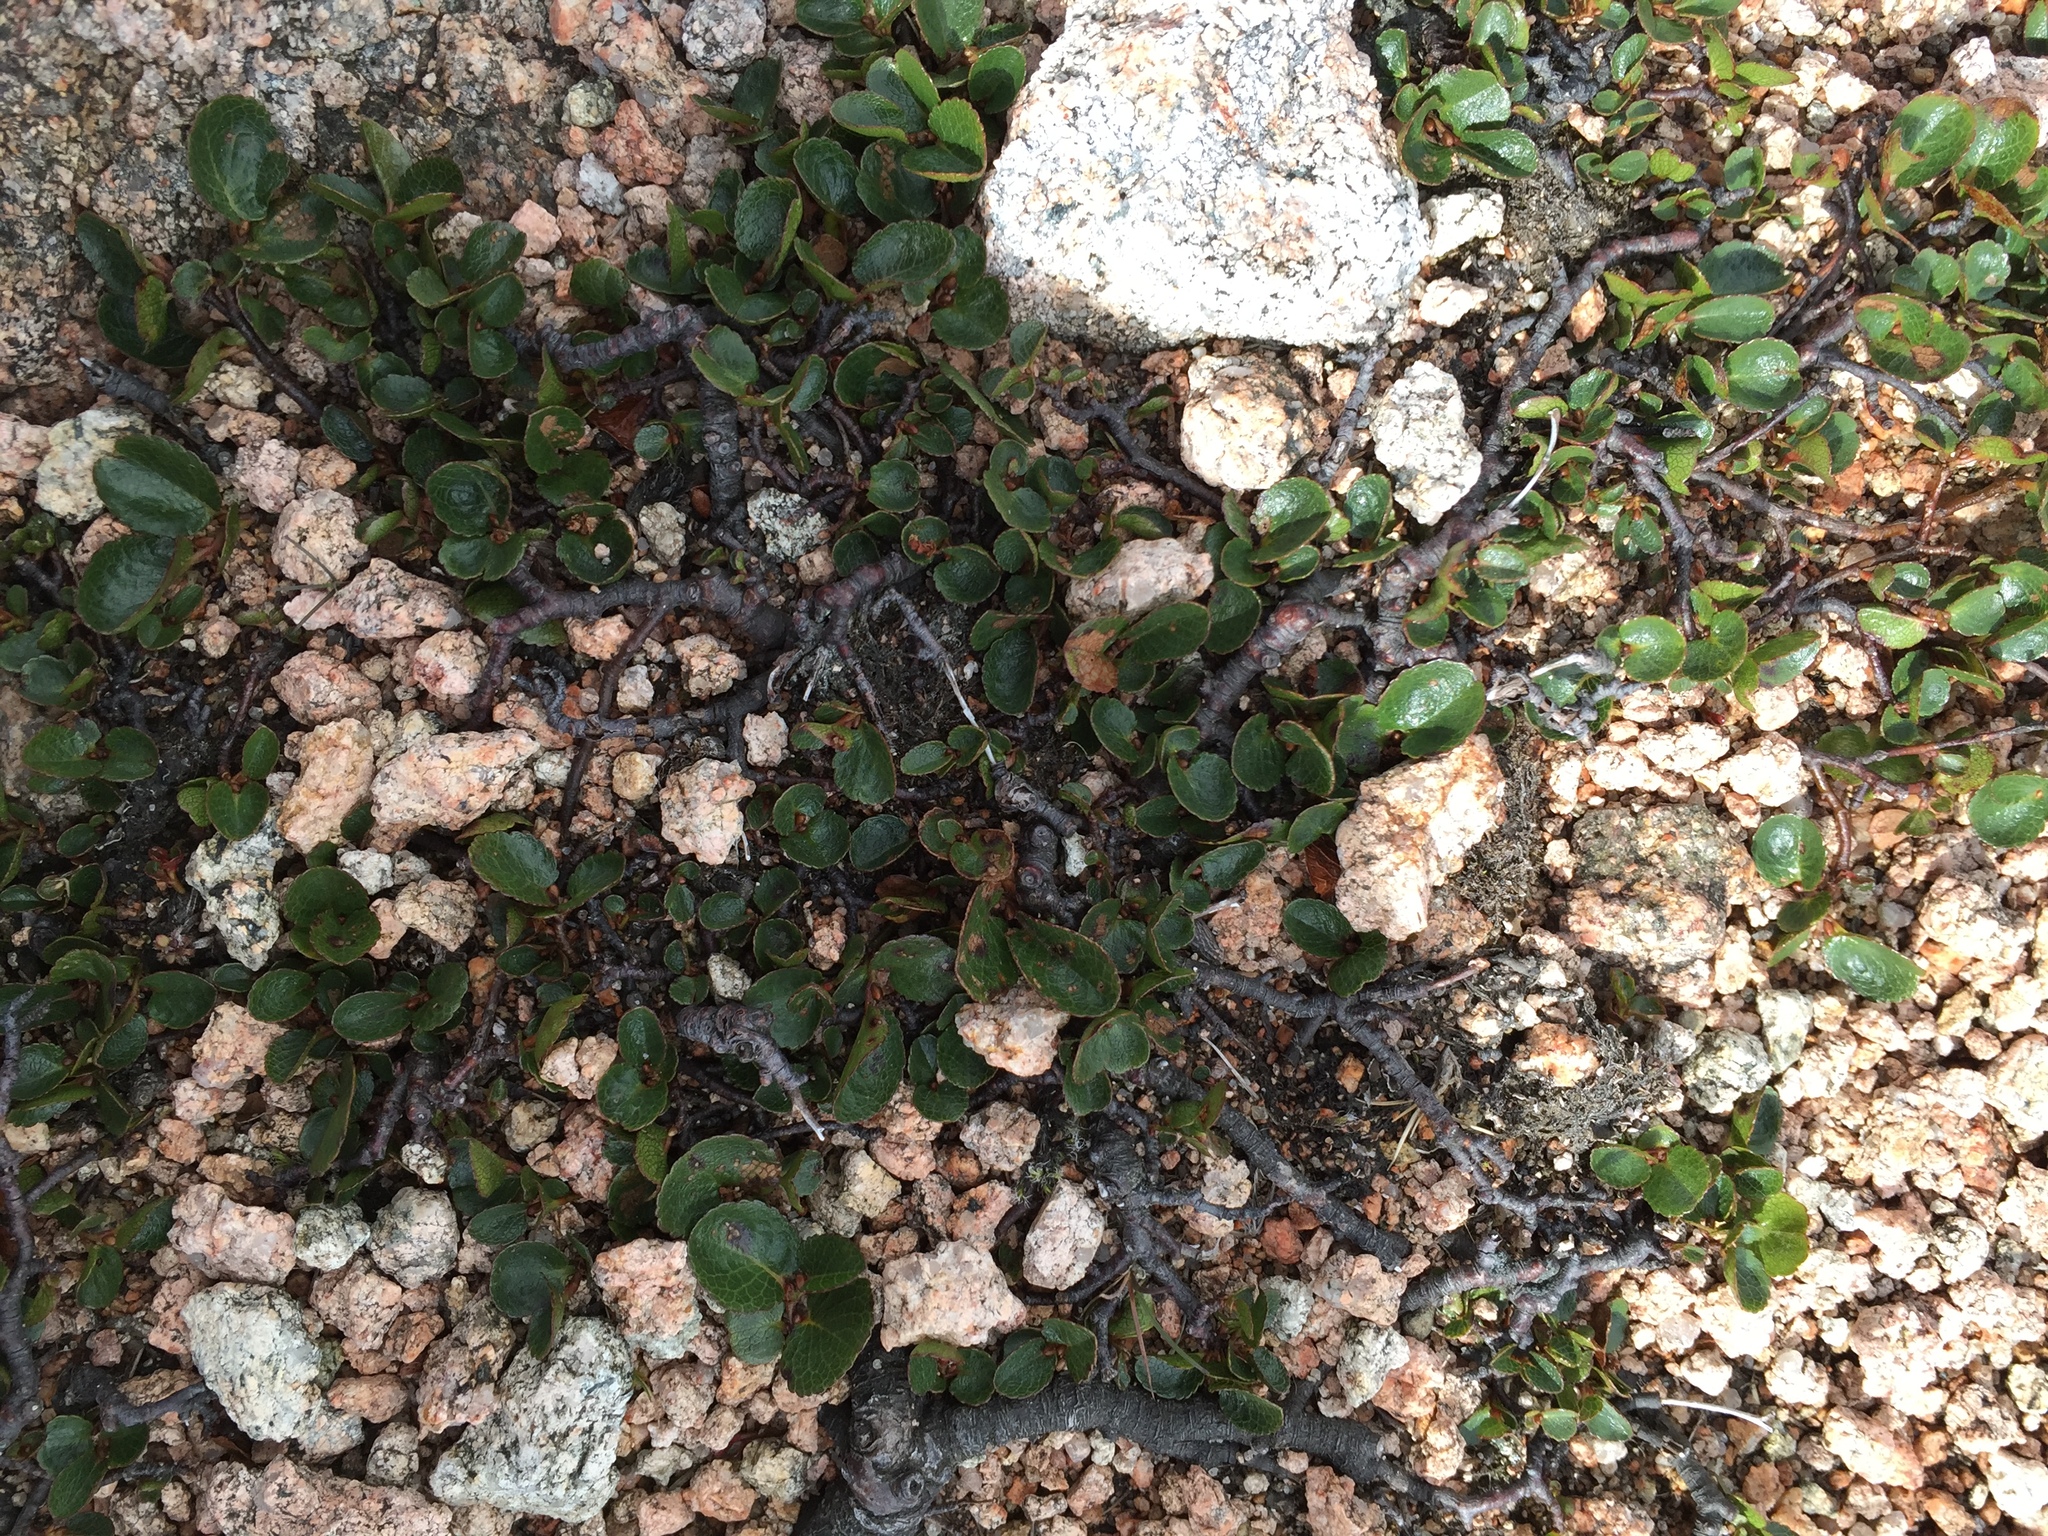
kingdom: Plantae
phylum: Tracheophyta
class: Magnoliopsida
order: Malpighiales
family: Salicaceae
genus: Salix
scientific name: Salix herbacea
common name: Dwarf willow
